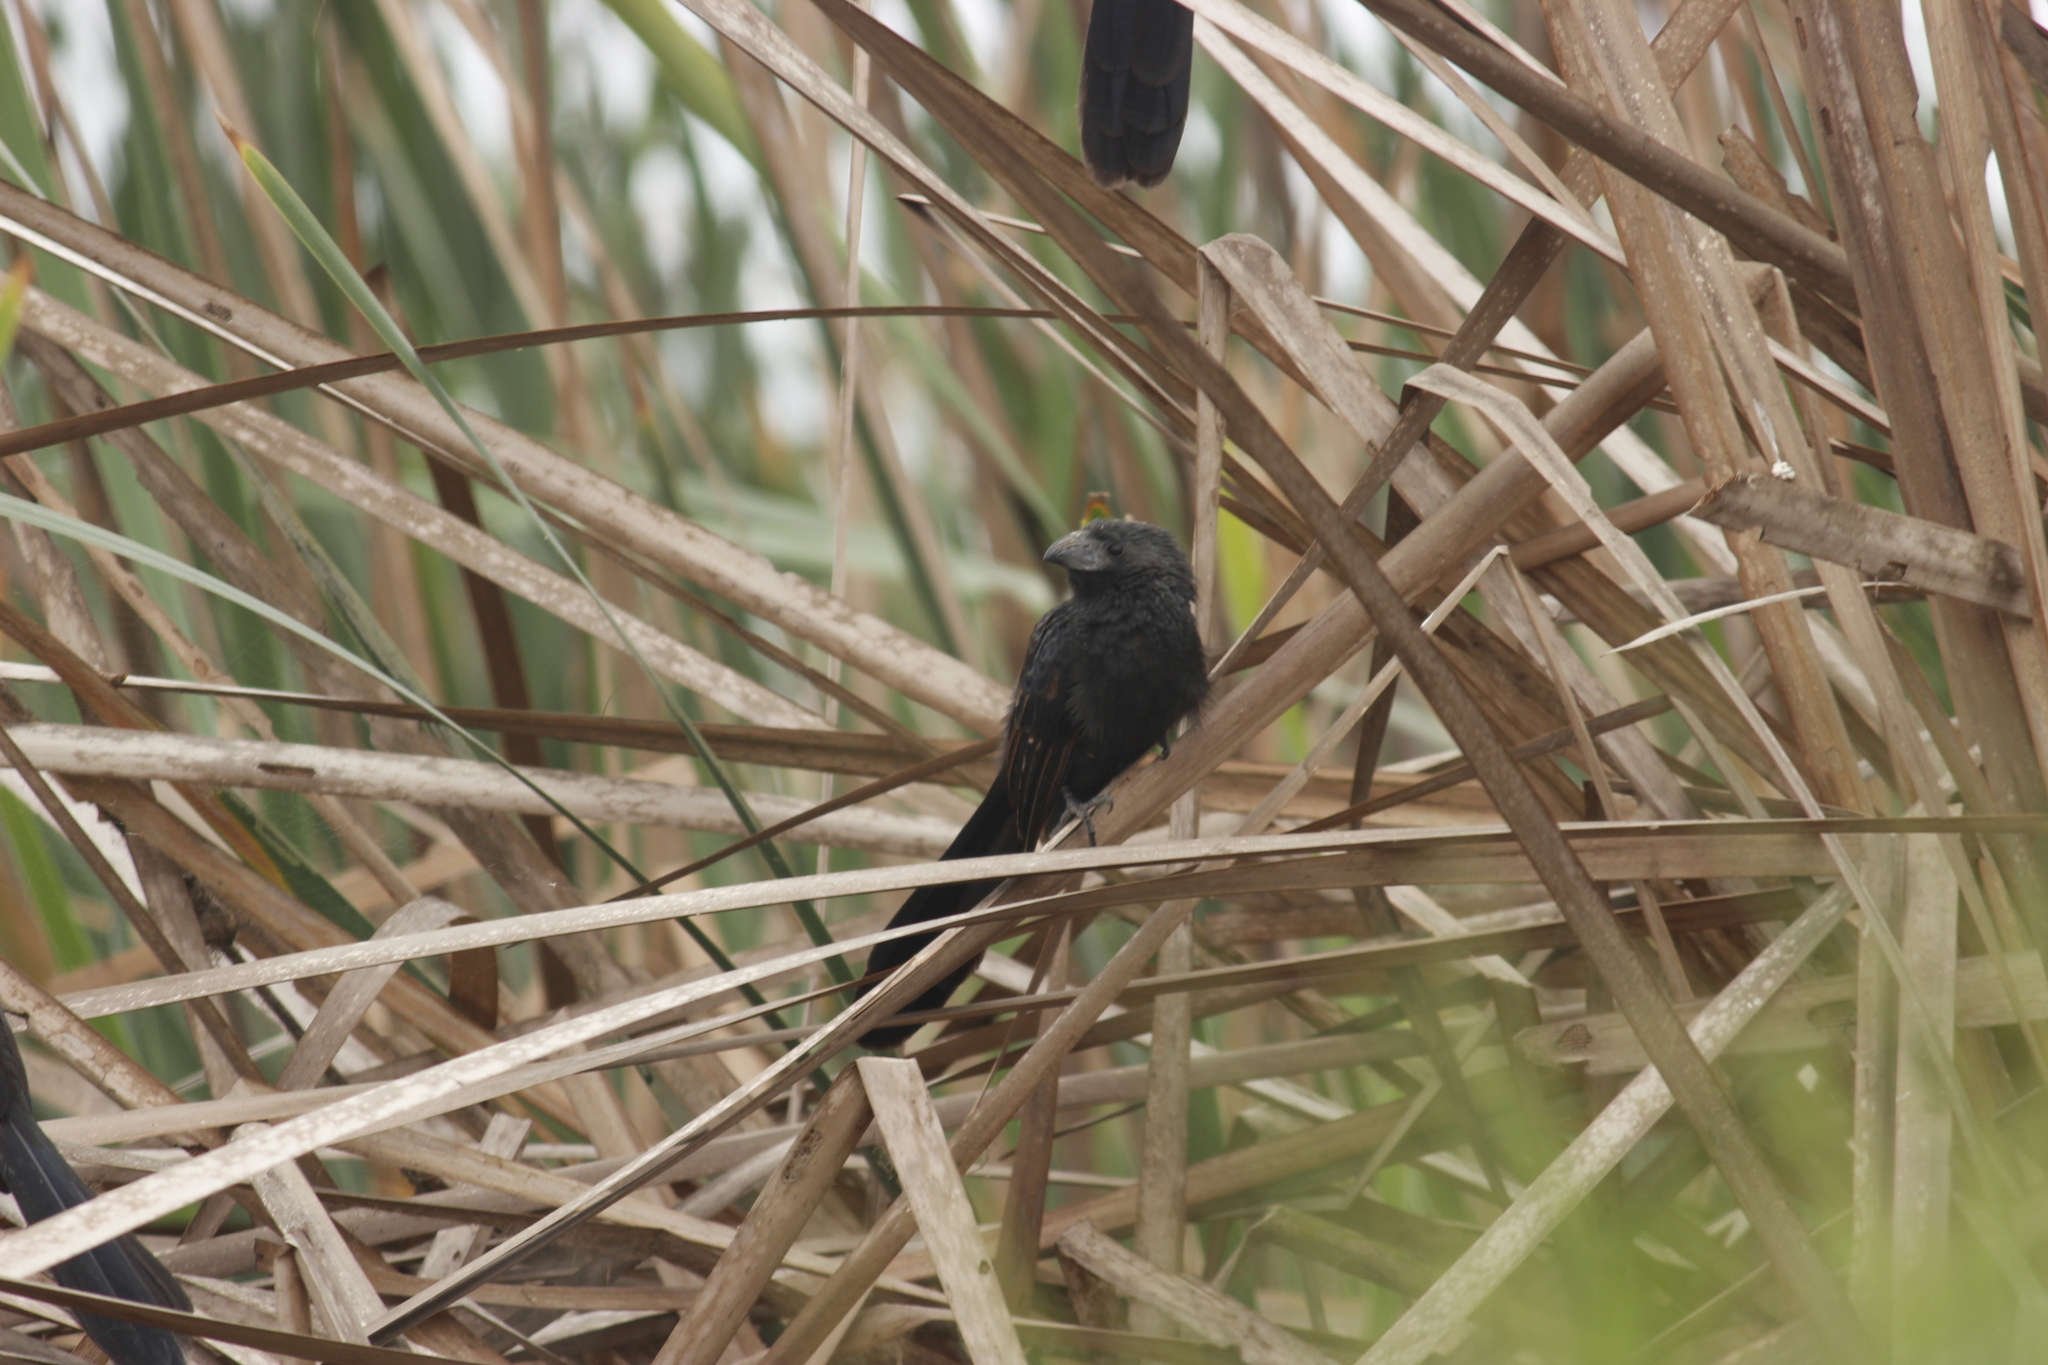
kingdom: Animalia
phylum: Chordata
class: Aves
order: Cuculiformes
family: Cuculidae
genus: Crotophaga
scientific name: Crotophaga sulcirostris
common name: Groove-billed ani
